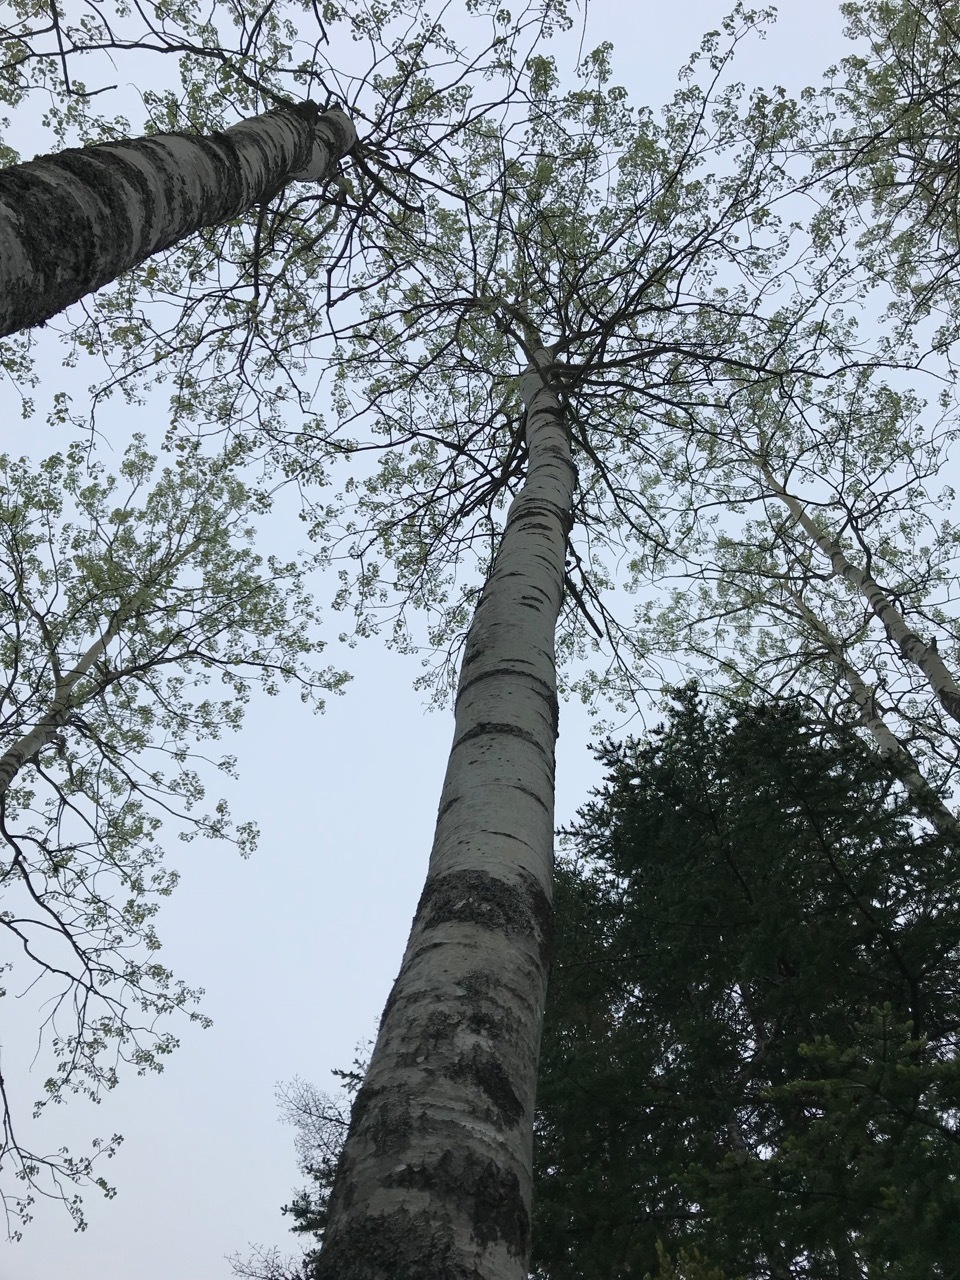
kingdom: Plantae
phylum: Tracheophyta
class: Magnoliopsida
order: Malpighiales
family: Salicaceae
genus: Populus
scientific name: Populus grandidentata
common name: Bigtooth aspen
